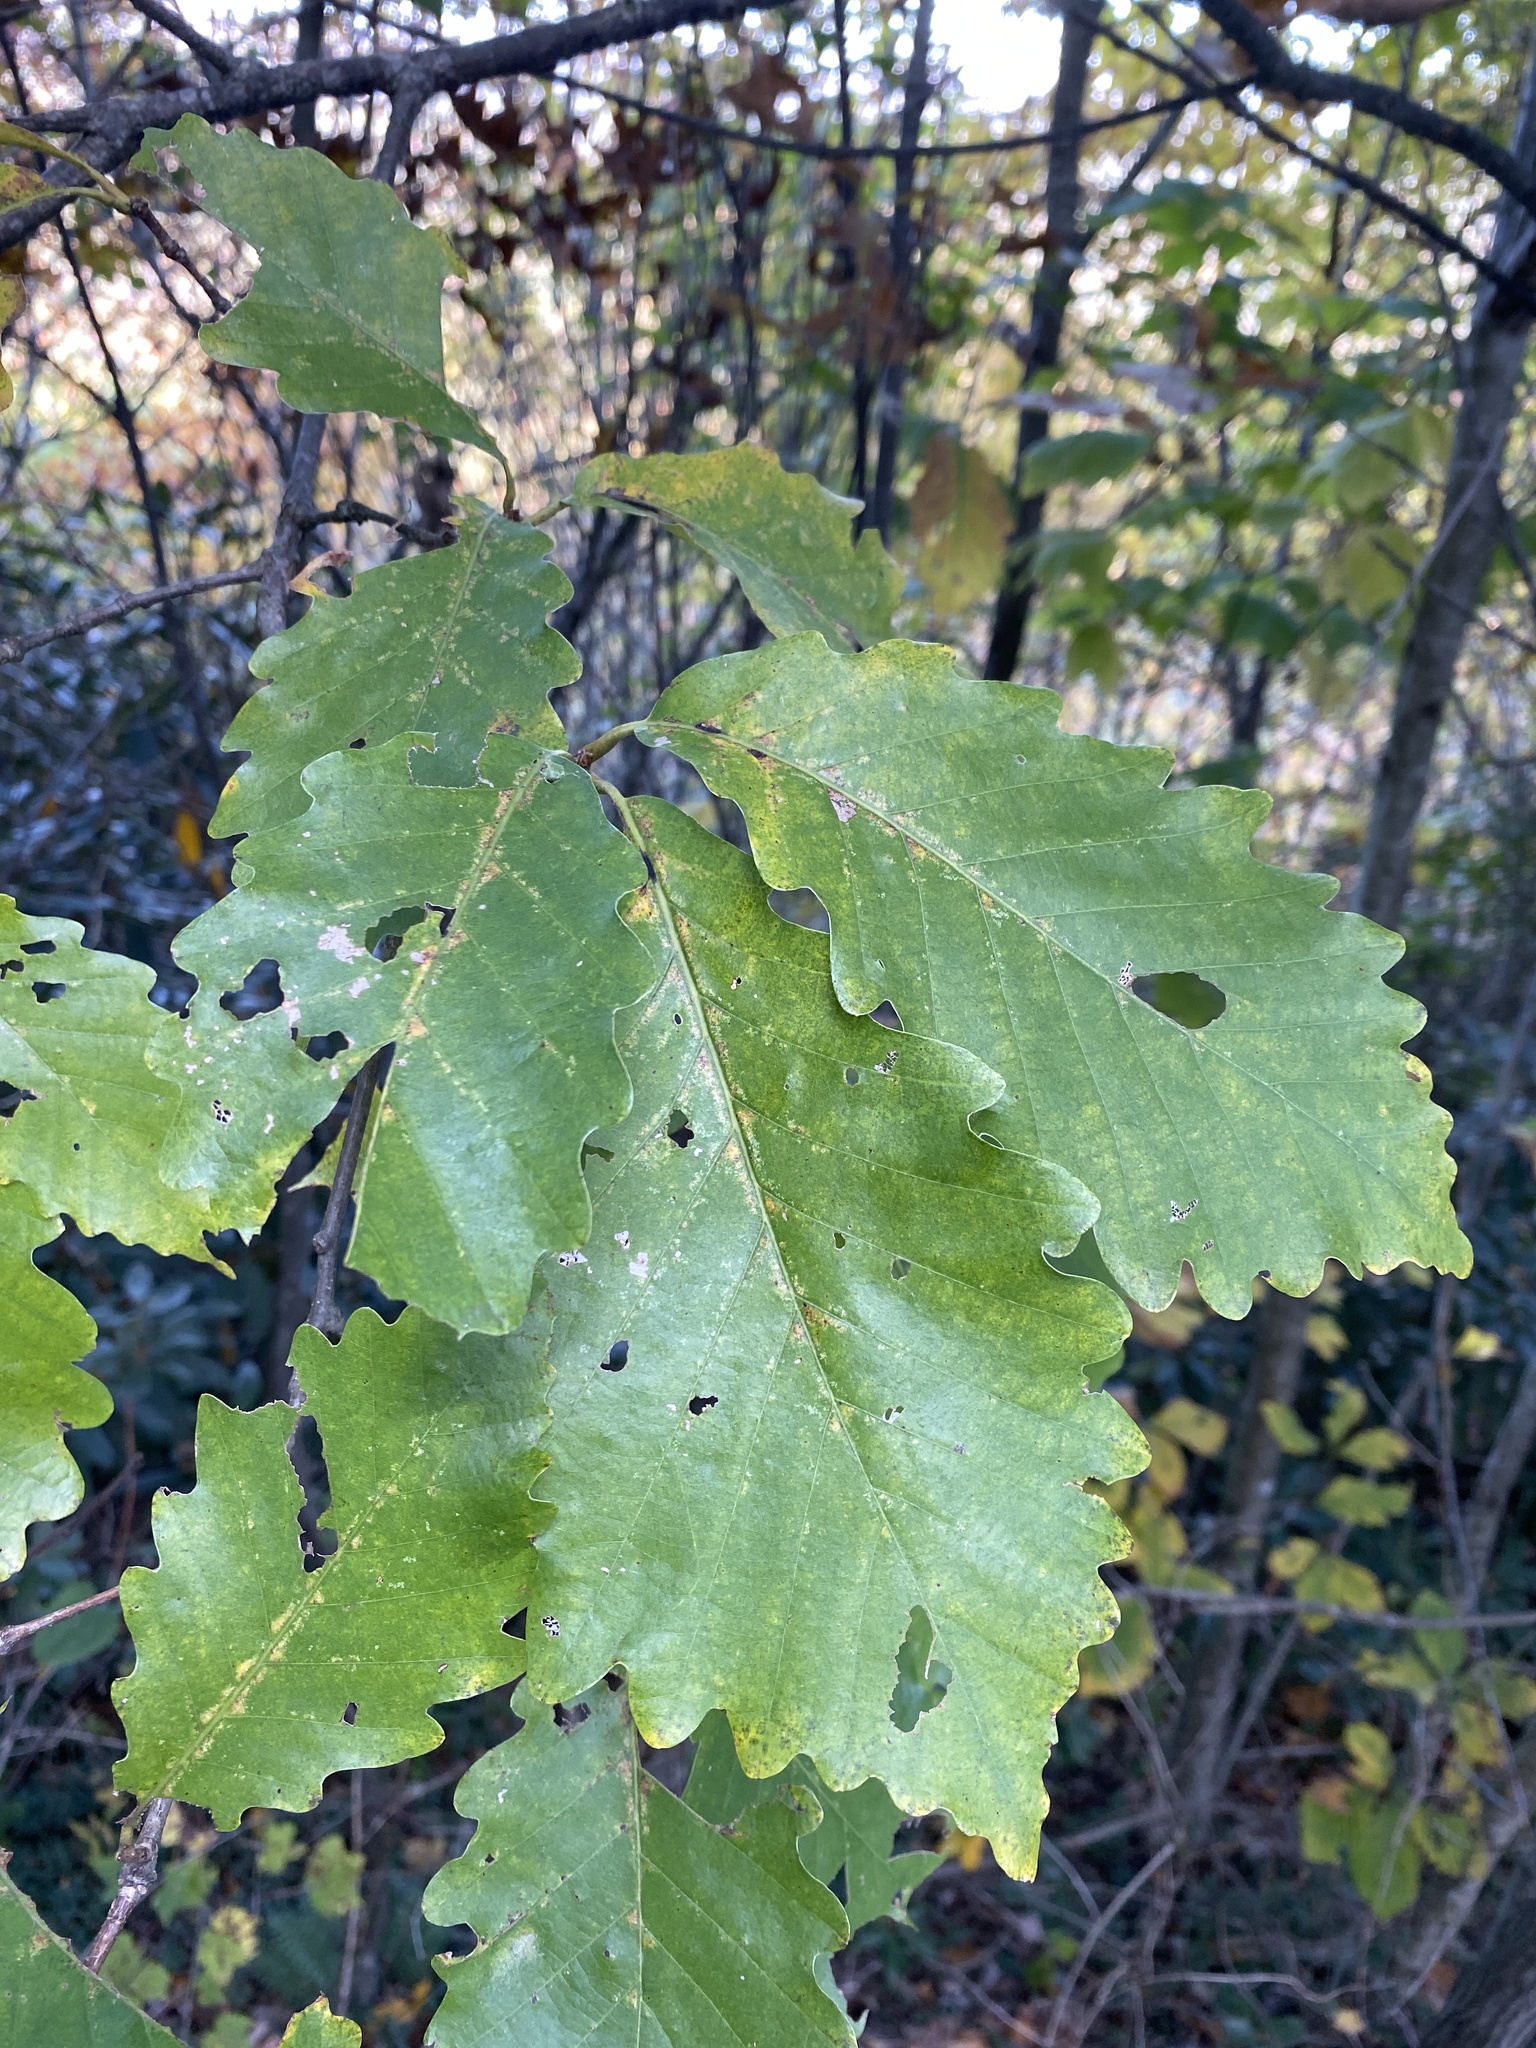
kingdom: Plantae
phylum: Tracheophyta
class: Magnoliopsida
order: Fagales
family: Fagaceae
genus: Quercus
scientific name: Quercus montana
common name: Chestnut oak
